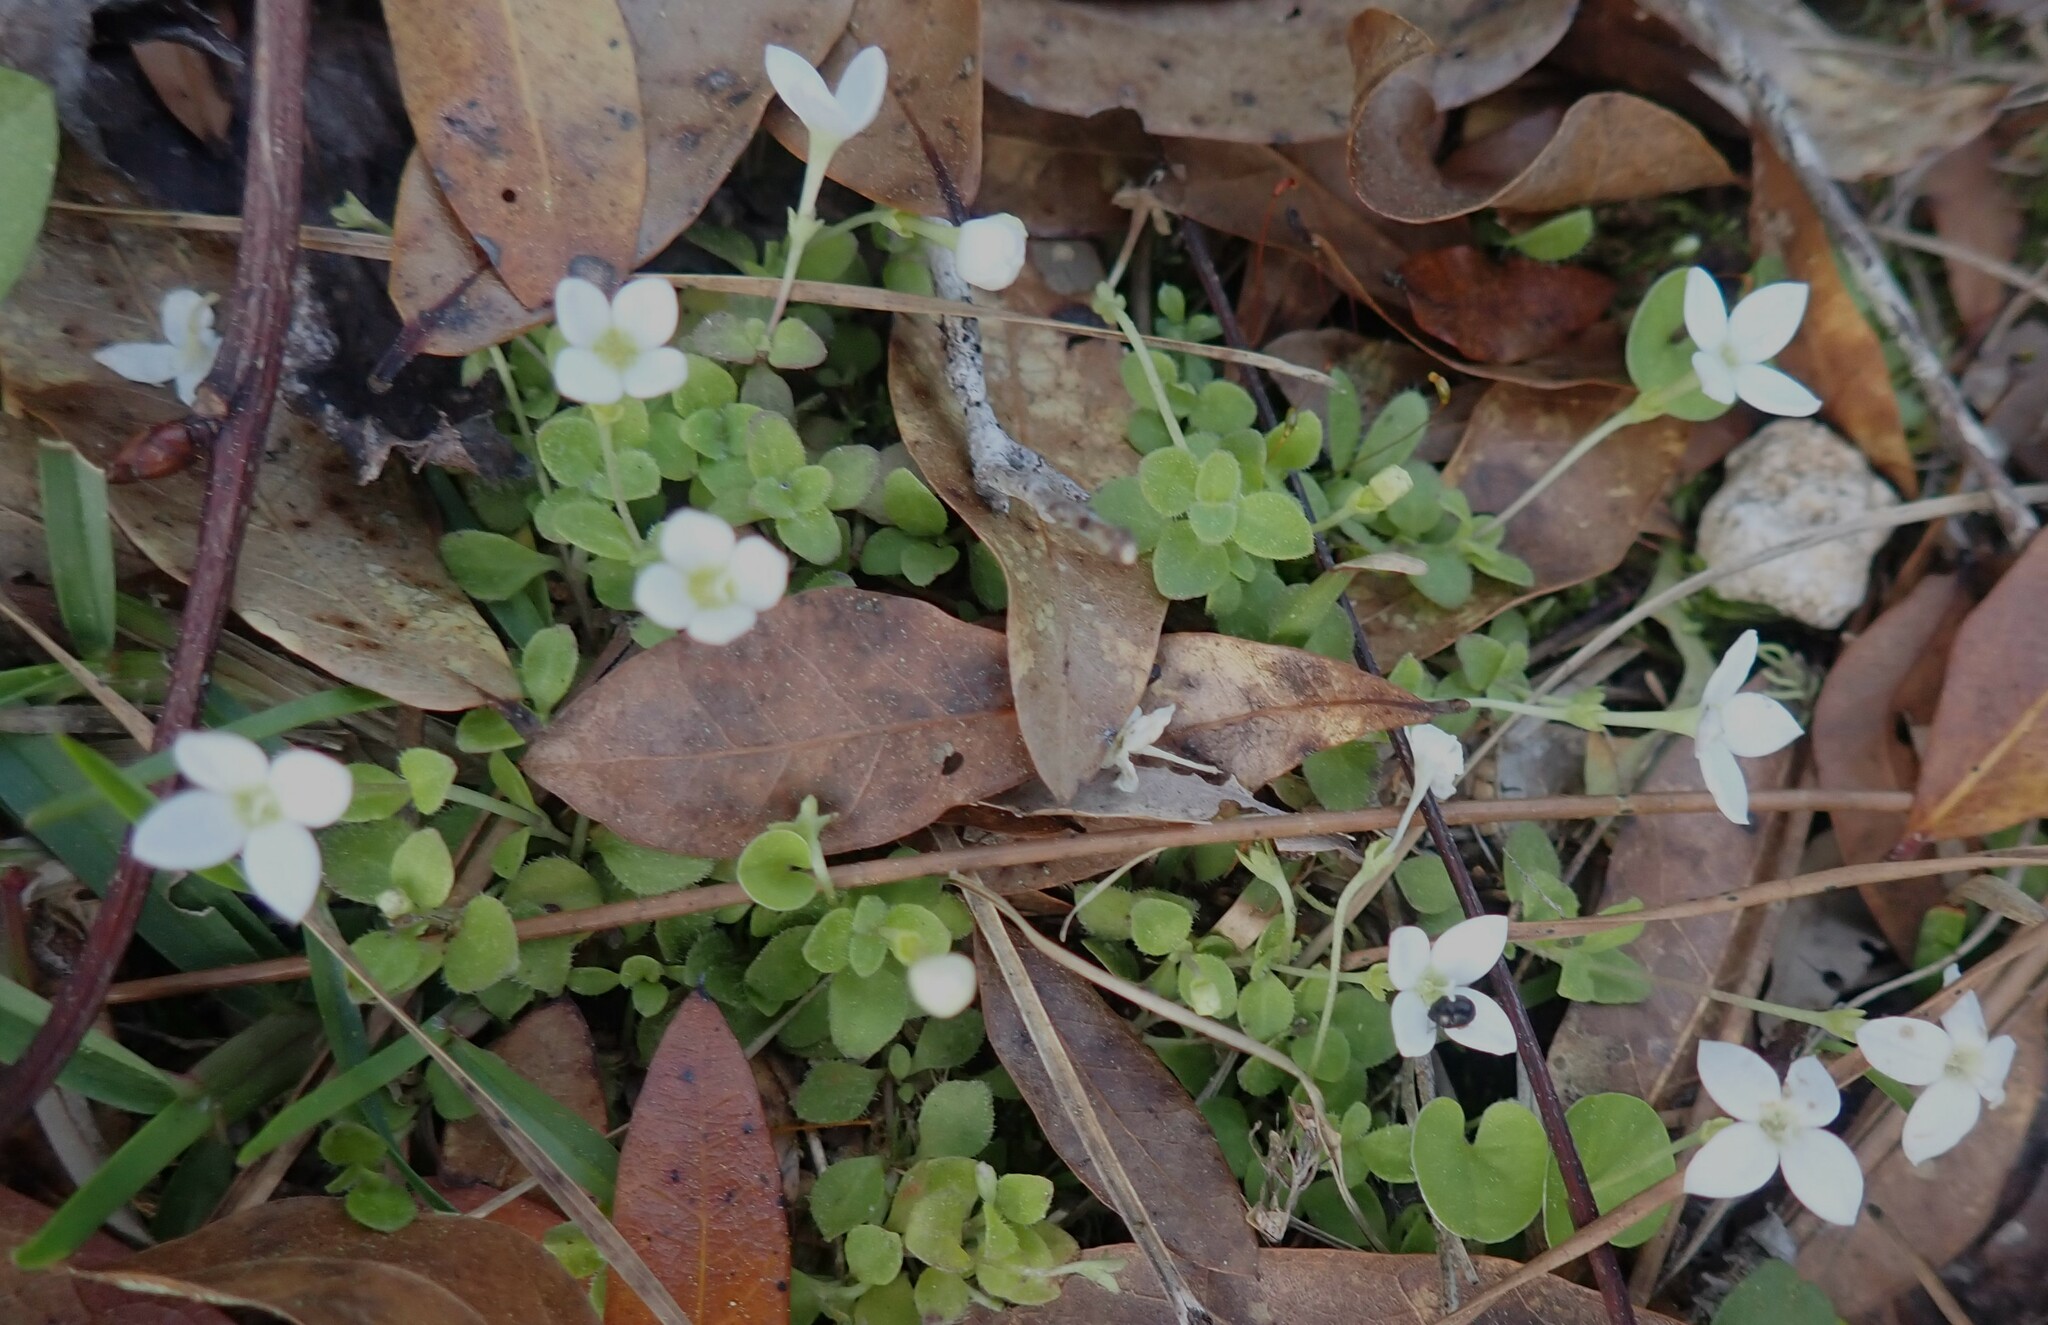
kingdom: Plantae
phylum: Tracheophyta
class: Magnoliopsida
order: Gentianales
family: Rubiaceae
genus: Houstonia
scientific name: Houstonia procumbens
